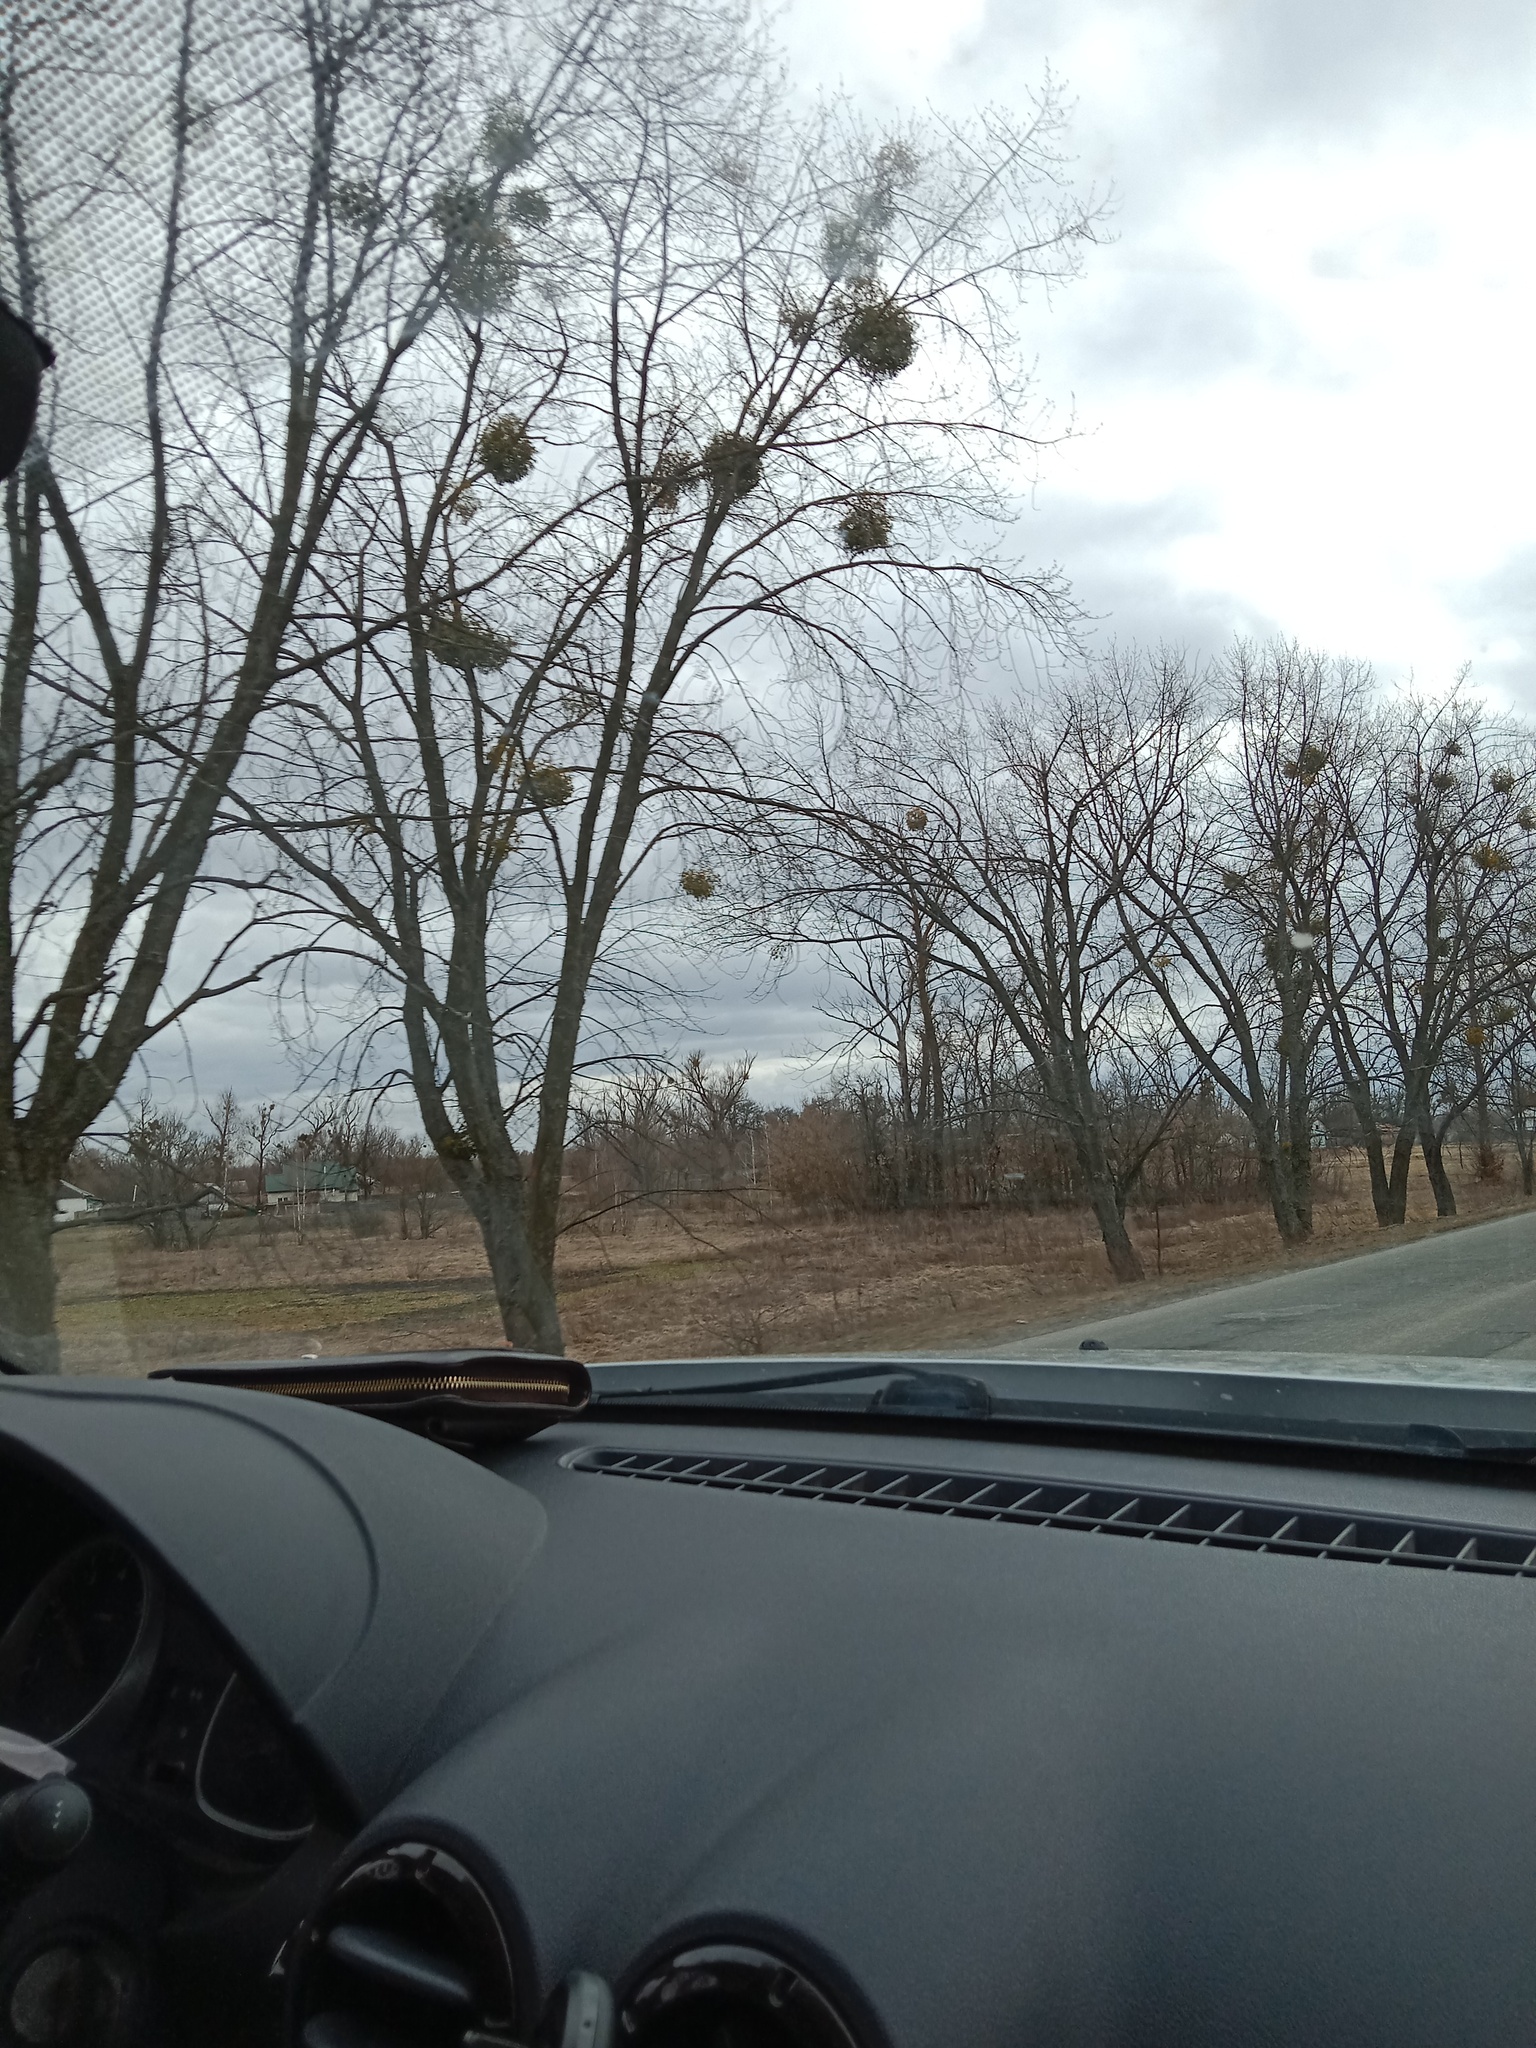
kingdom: Plantae
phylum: Tracheophyta
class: Magnoliopsida
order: Santalales
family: Viscaceae
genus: Viscum
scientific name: Viscum album
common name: Mistletoe
